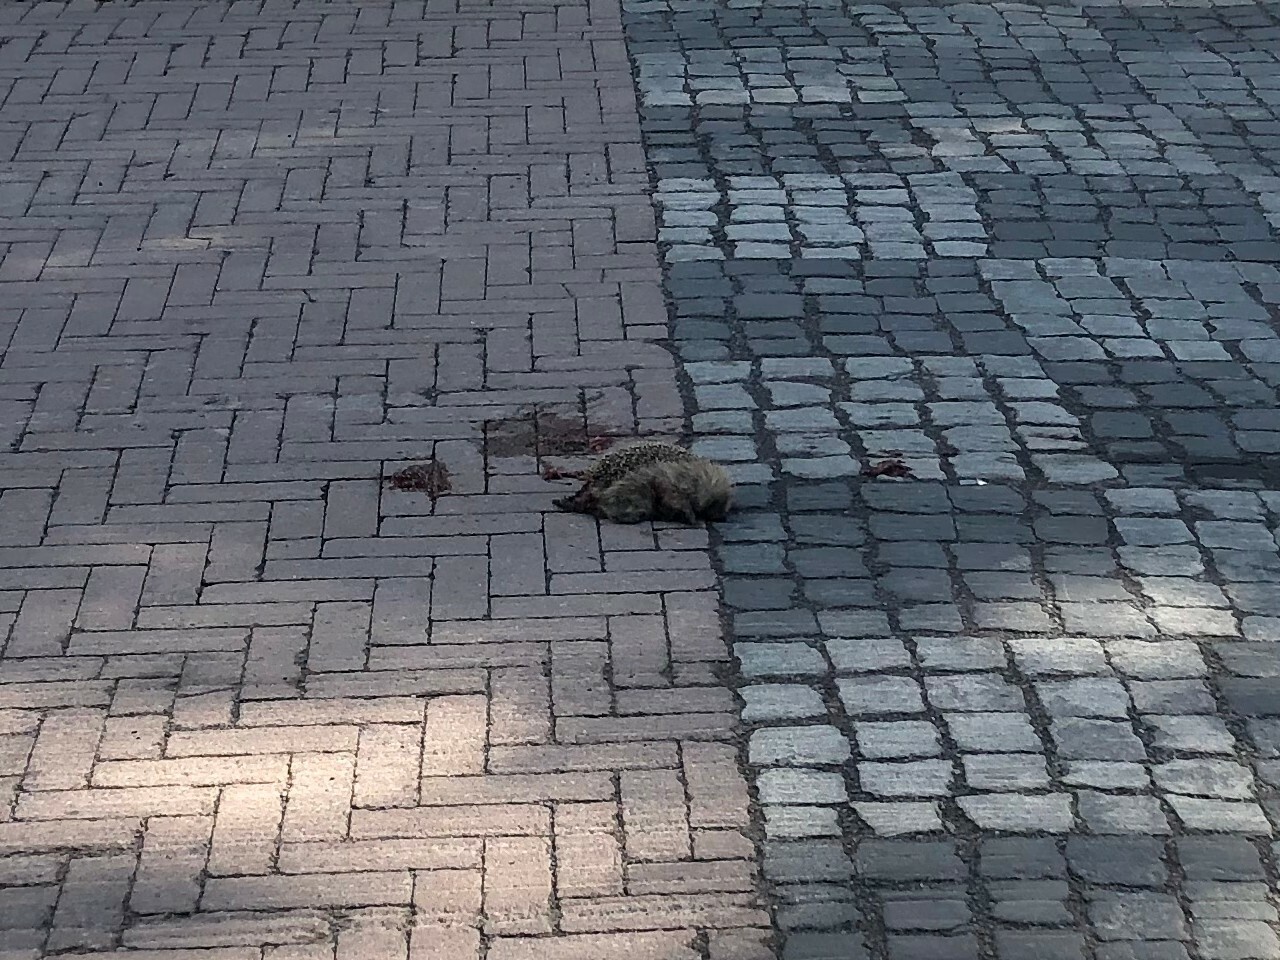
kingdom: Animalia
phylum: Chordata
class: Mammalia
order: Erinaceomorpha
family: Erinaceidae
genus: Erinaceus
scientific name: Erinaceus europaeus
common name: West european hedgehog
